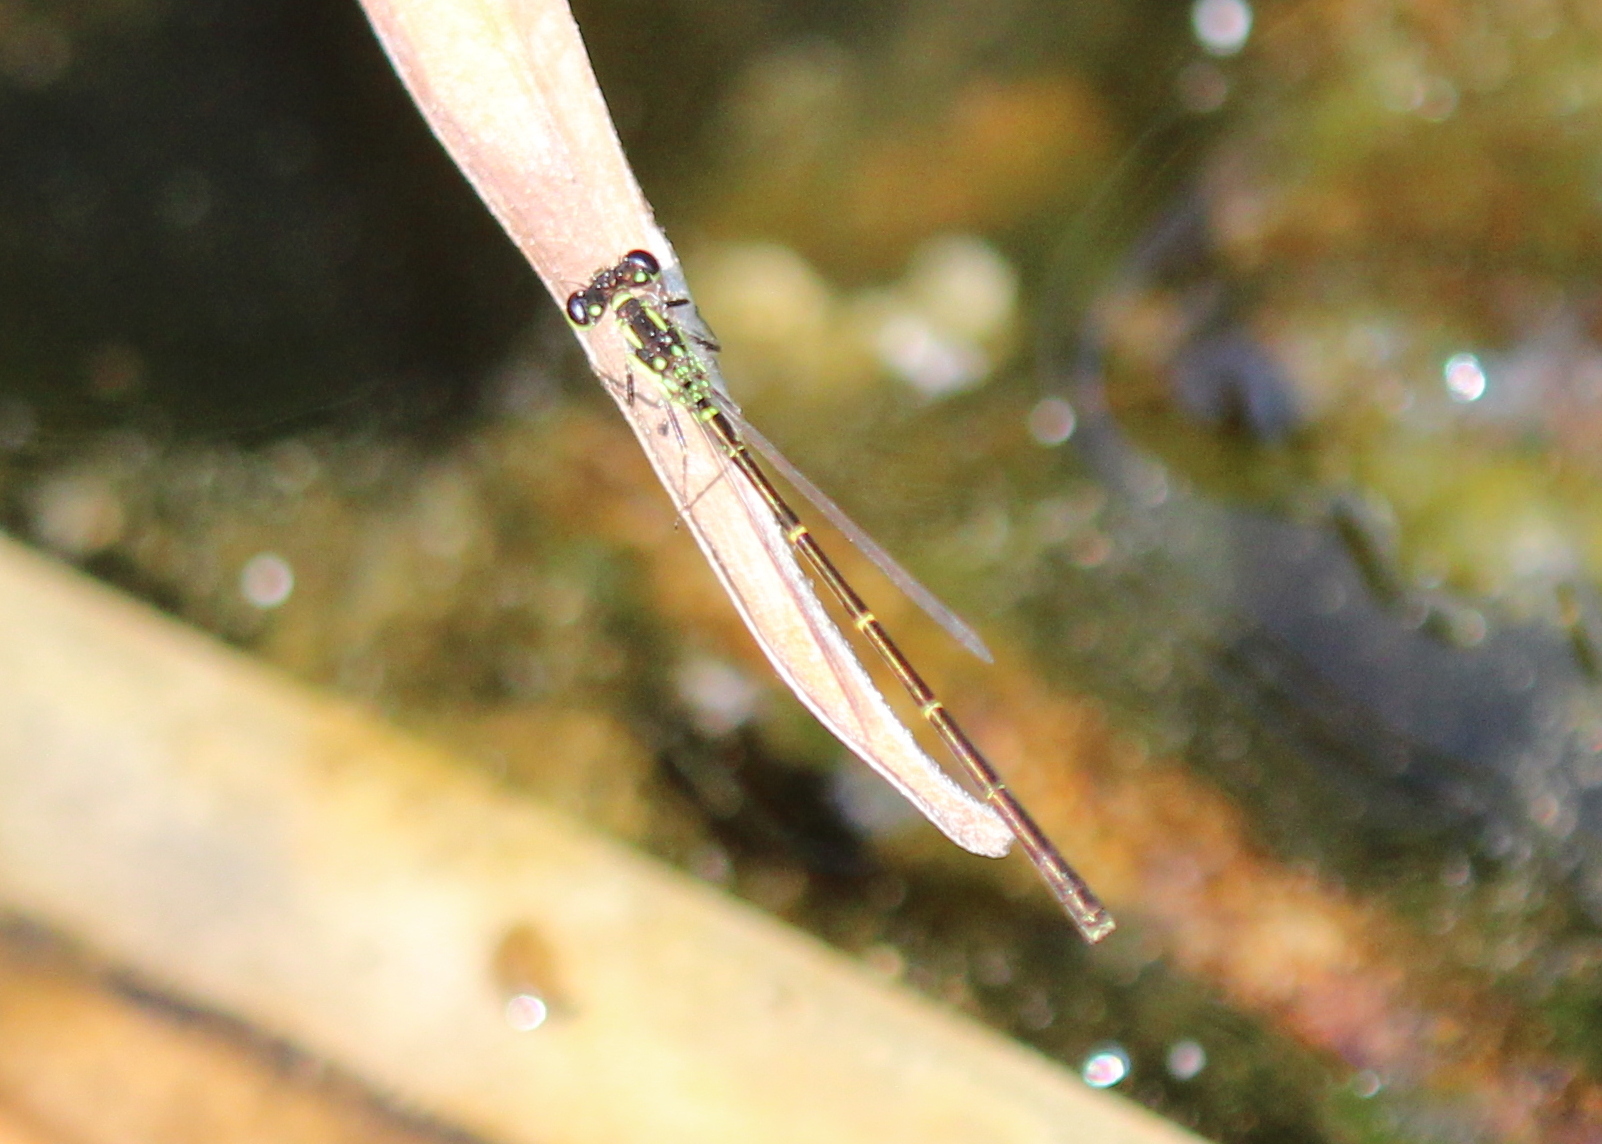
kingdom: Animalia
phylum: Arthropoda
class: Insecta
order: Odonata
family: Coenagrionidae
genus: Ischnura
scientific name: Ischnura posita
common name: Fragile forktail
